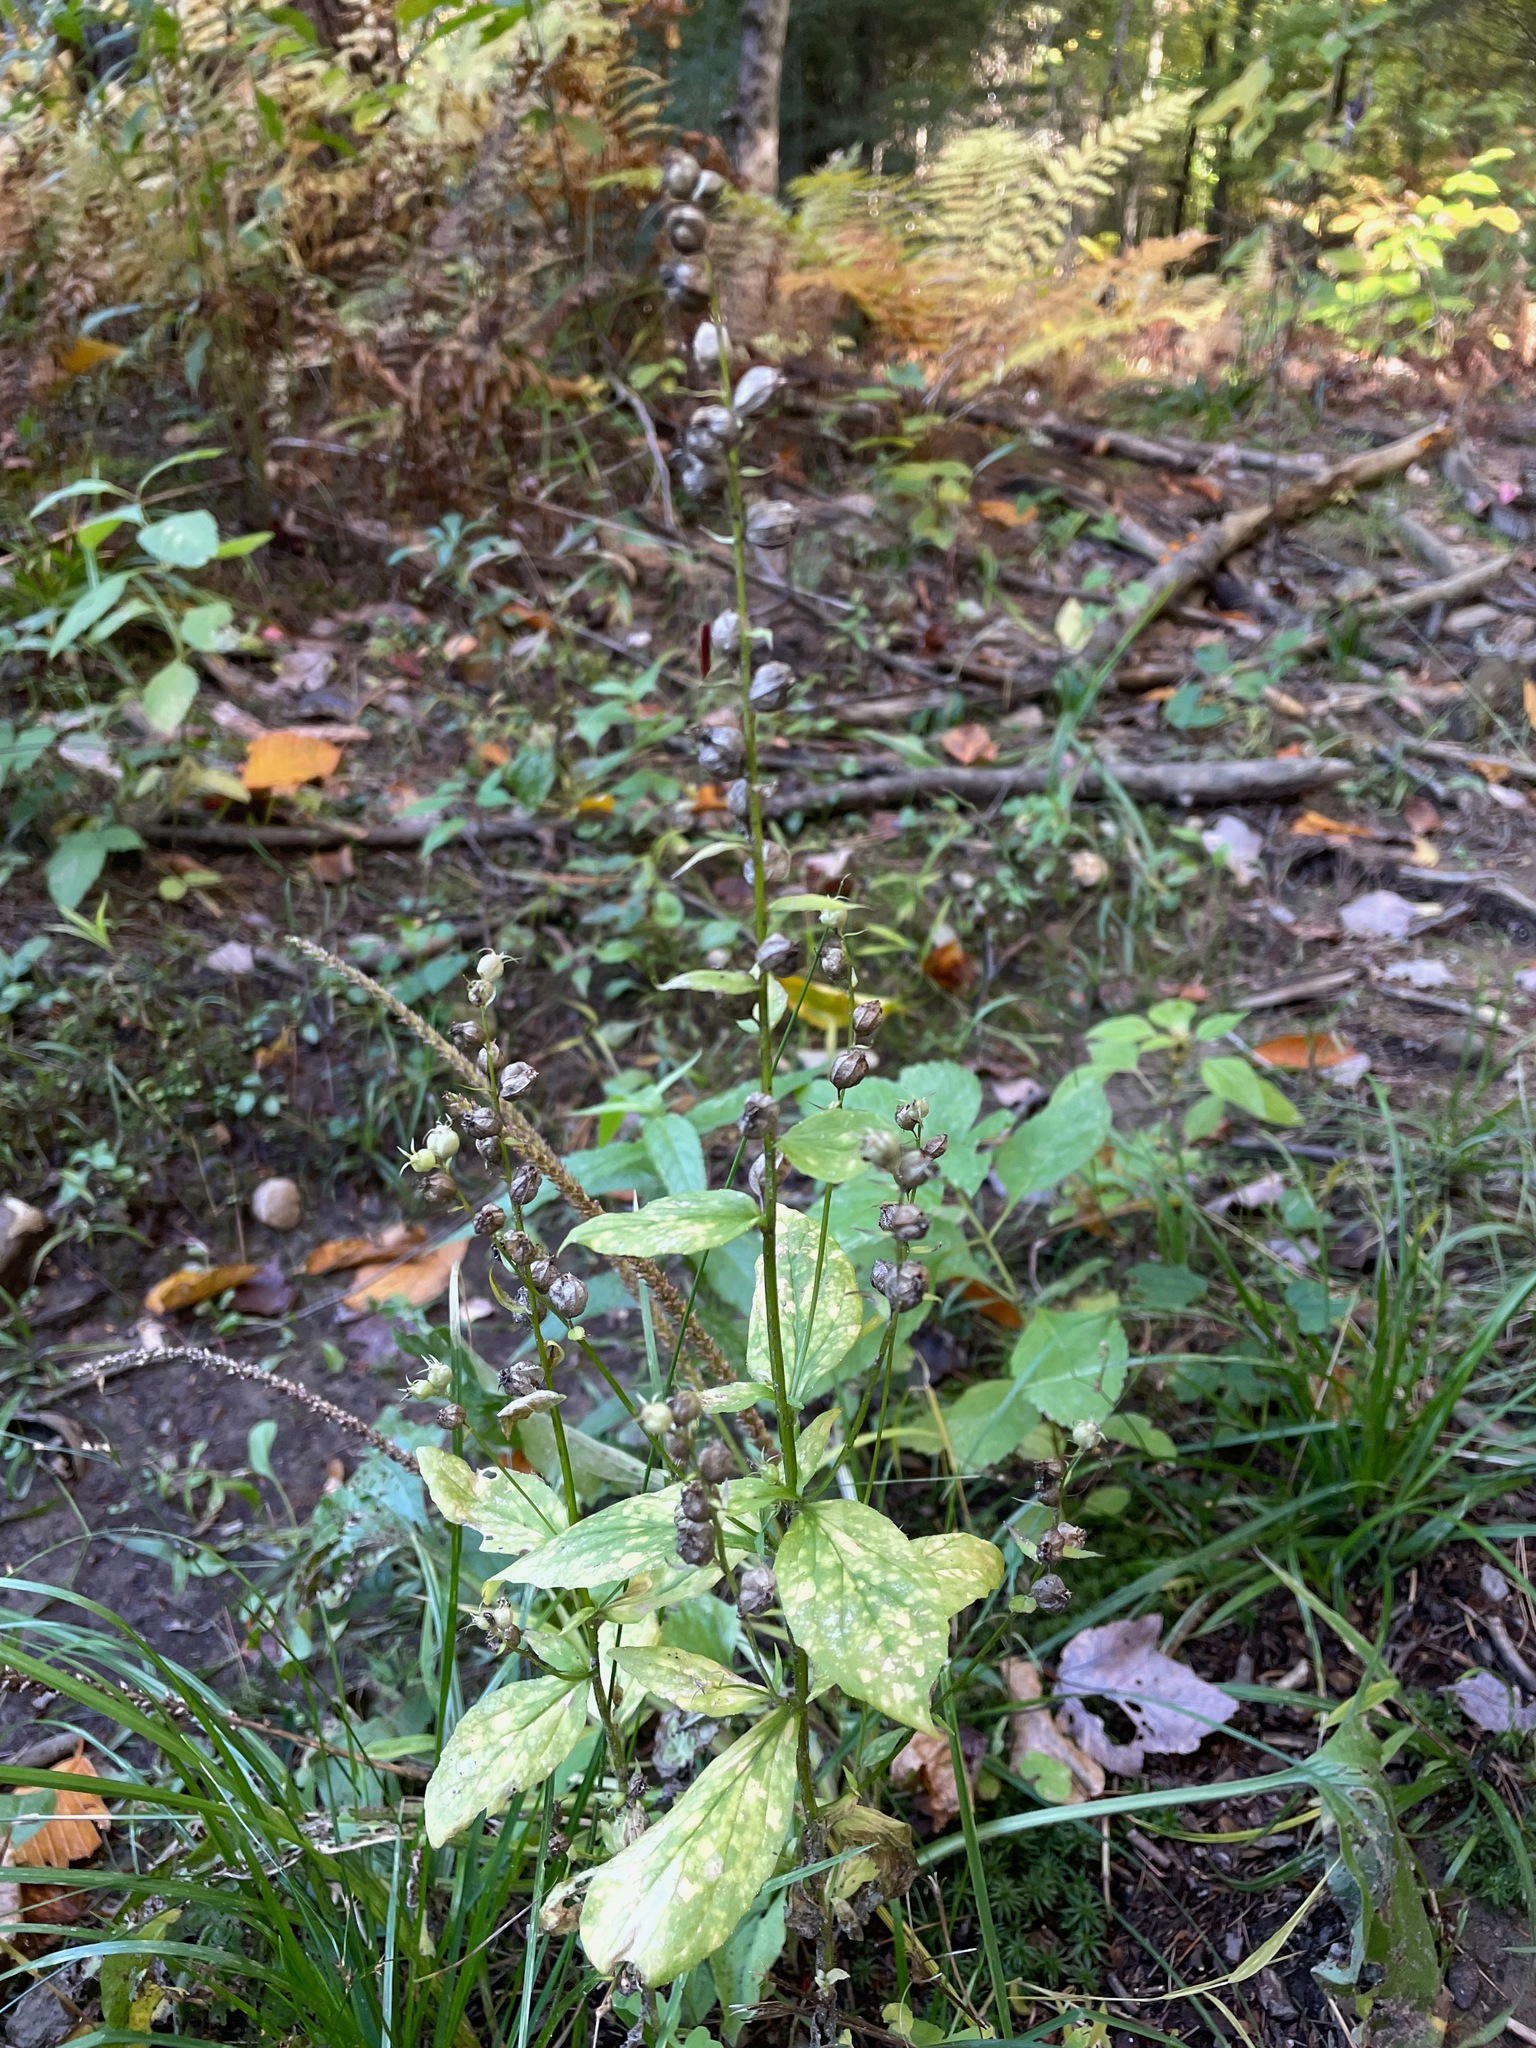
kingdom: Plantae
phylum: Tracheophyta
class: Magnoliopsida
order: Asterales
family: Campanulaceae
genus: Lobelia
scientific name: Lobelia inflata
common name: Indian tobacco
